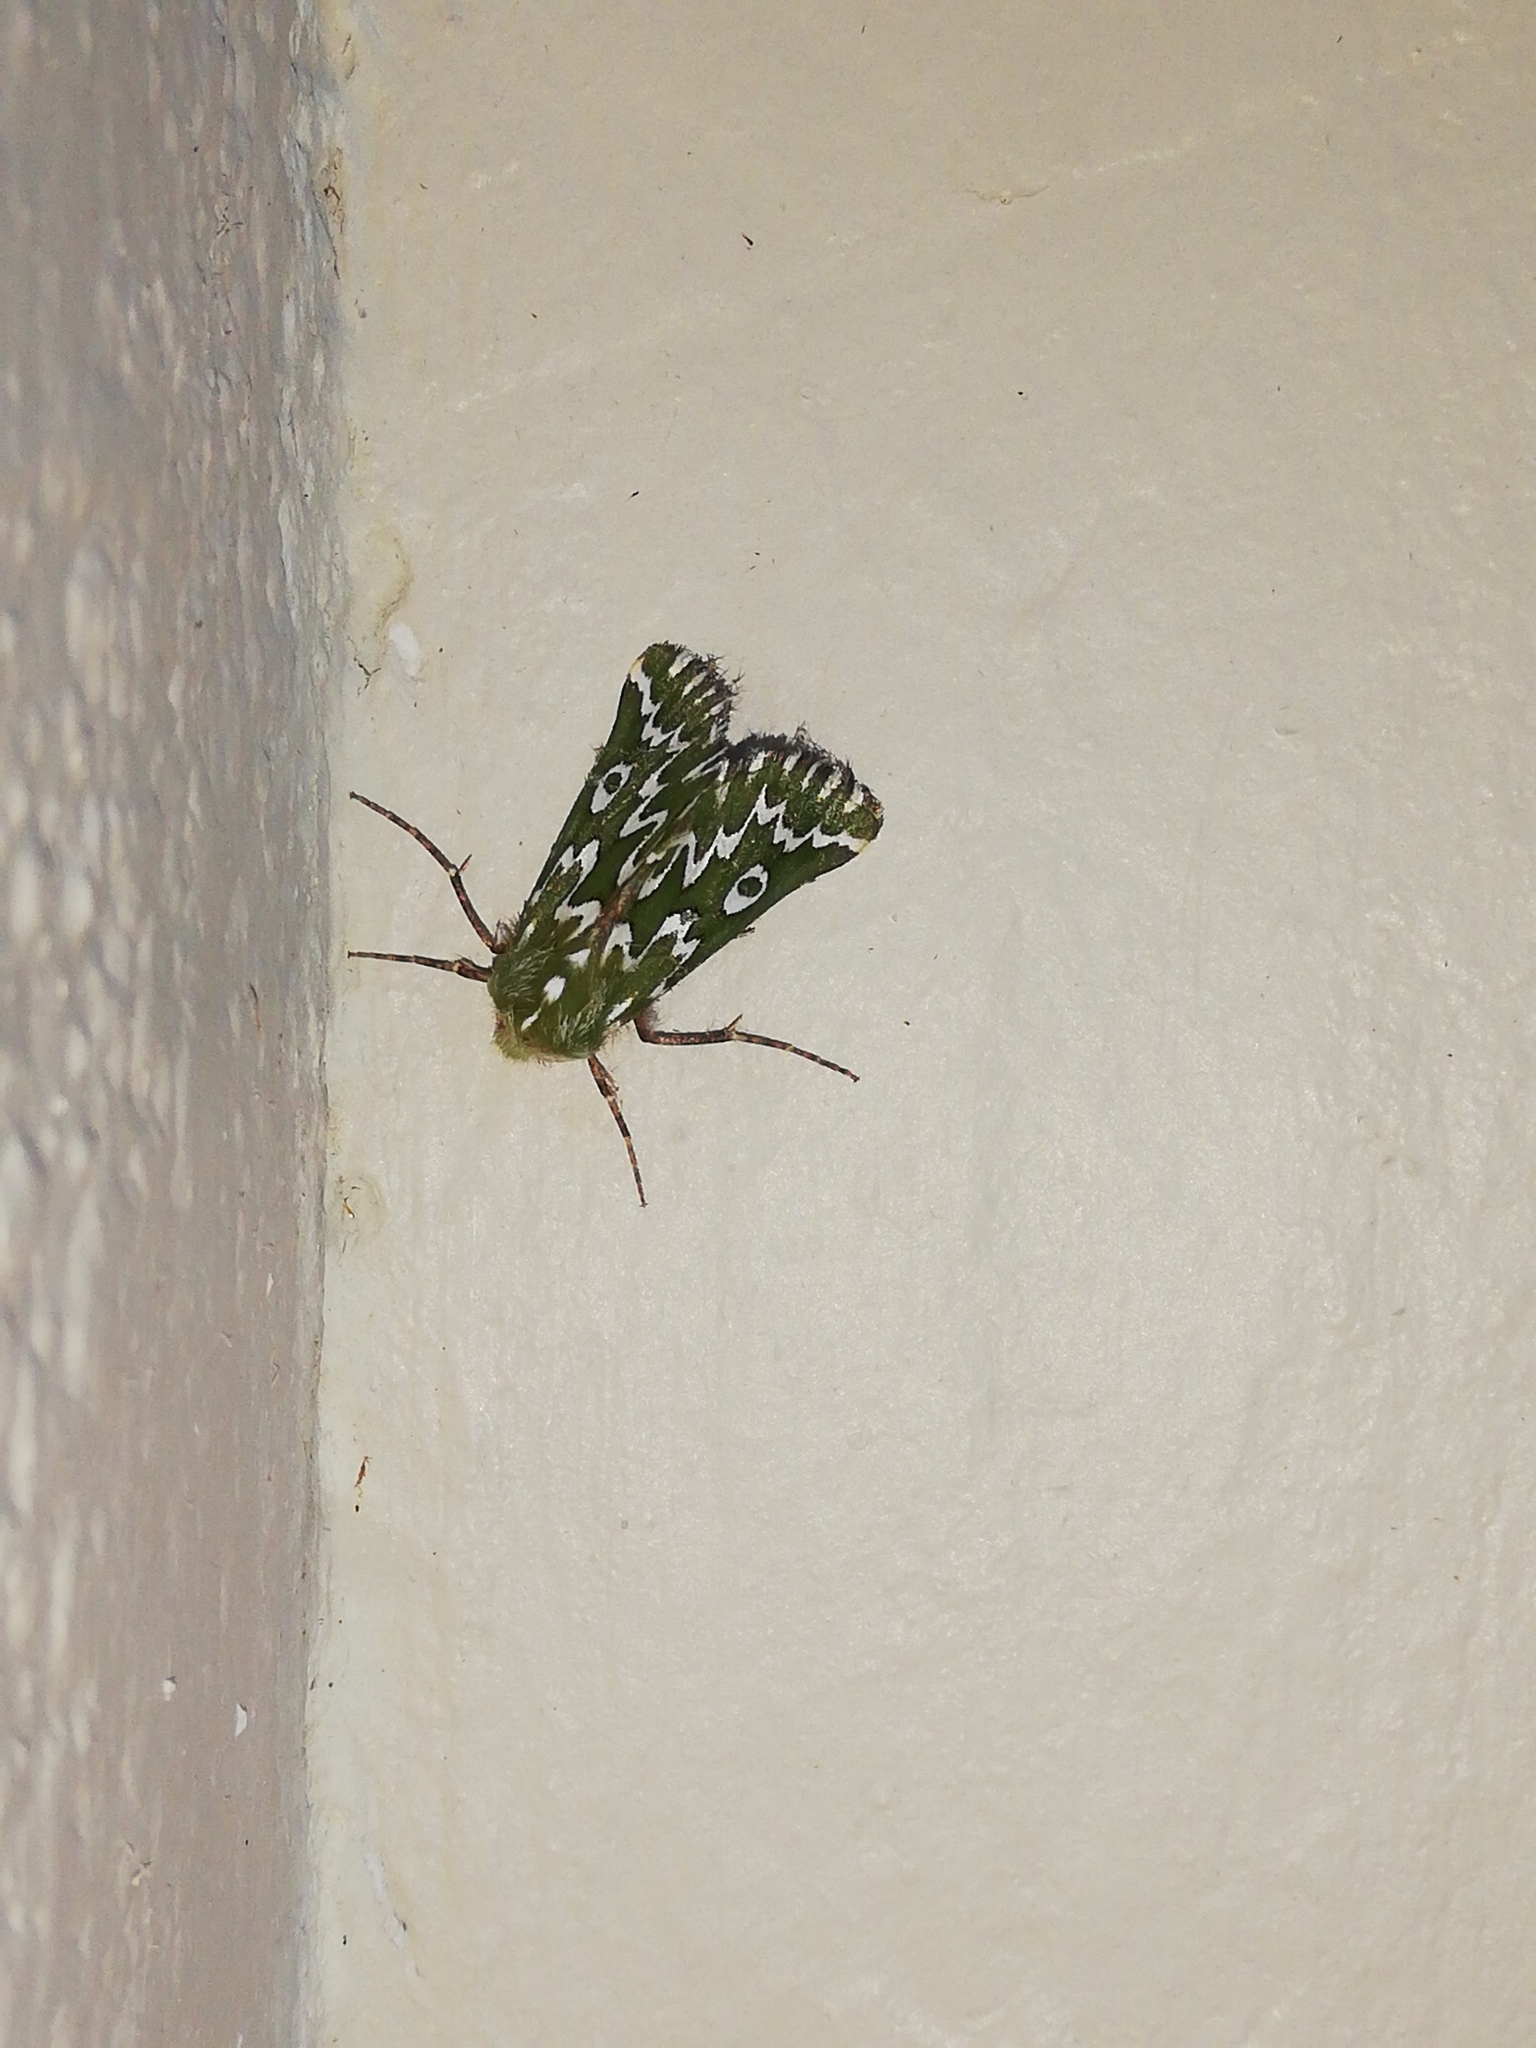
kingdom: Animalia
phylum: Arthropoda
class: Insecta
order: Lepidoptera
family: Geometridae
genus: Axiodes
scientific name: Axiodes bifasciata
